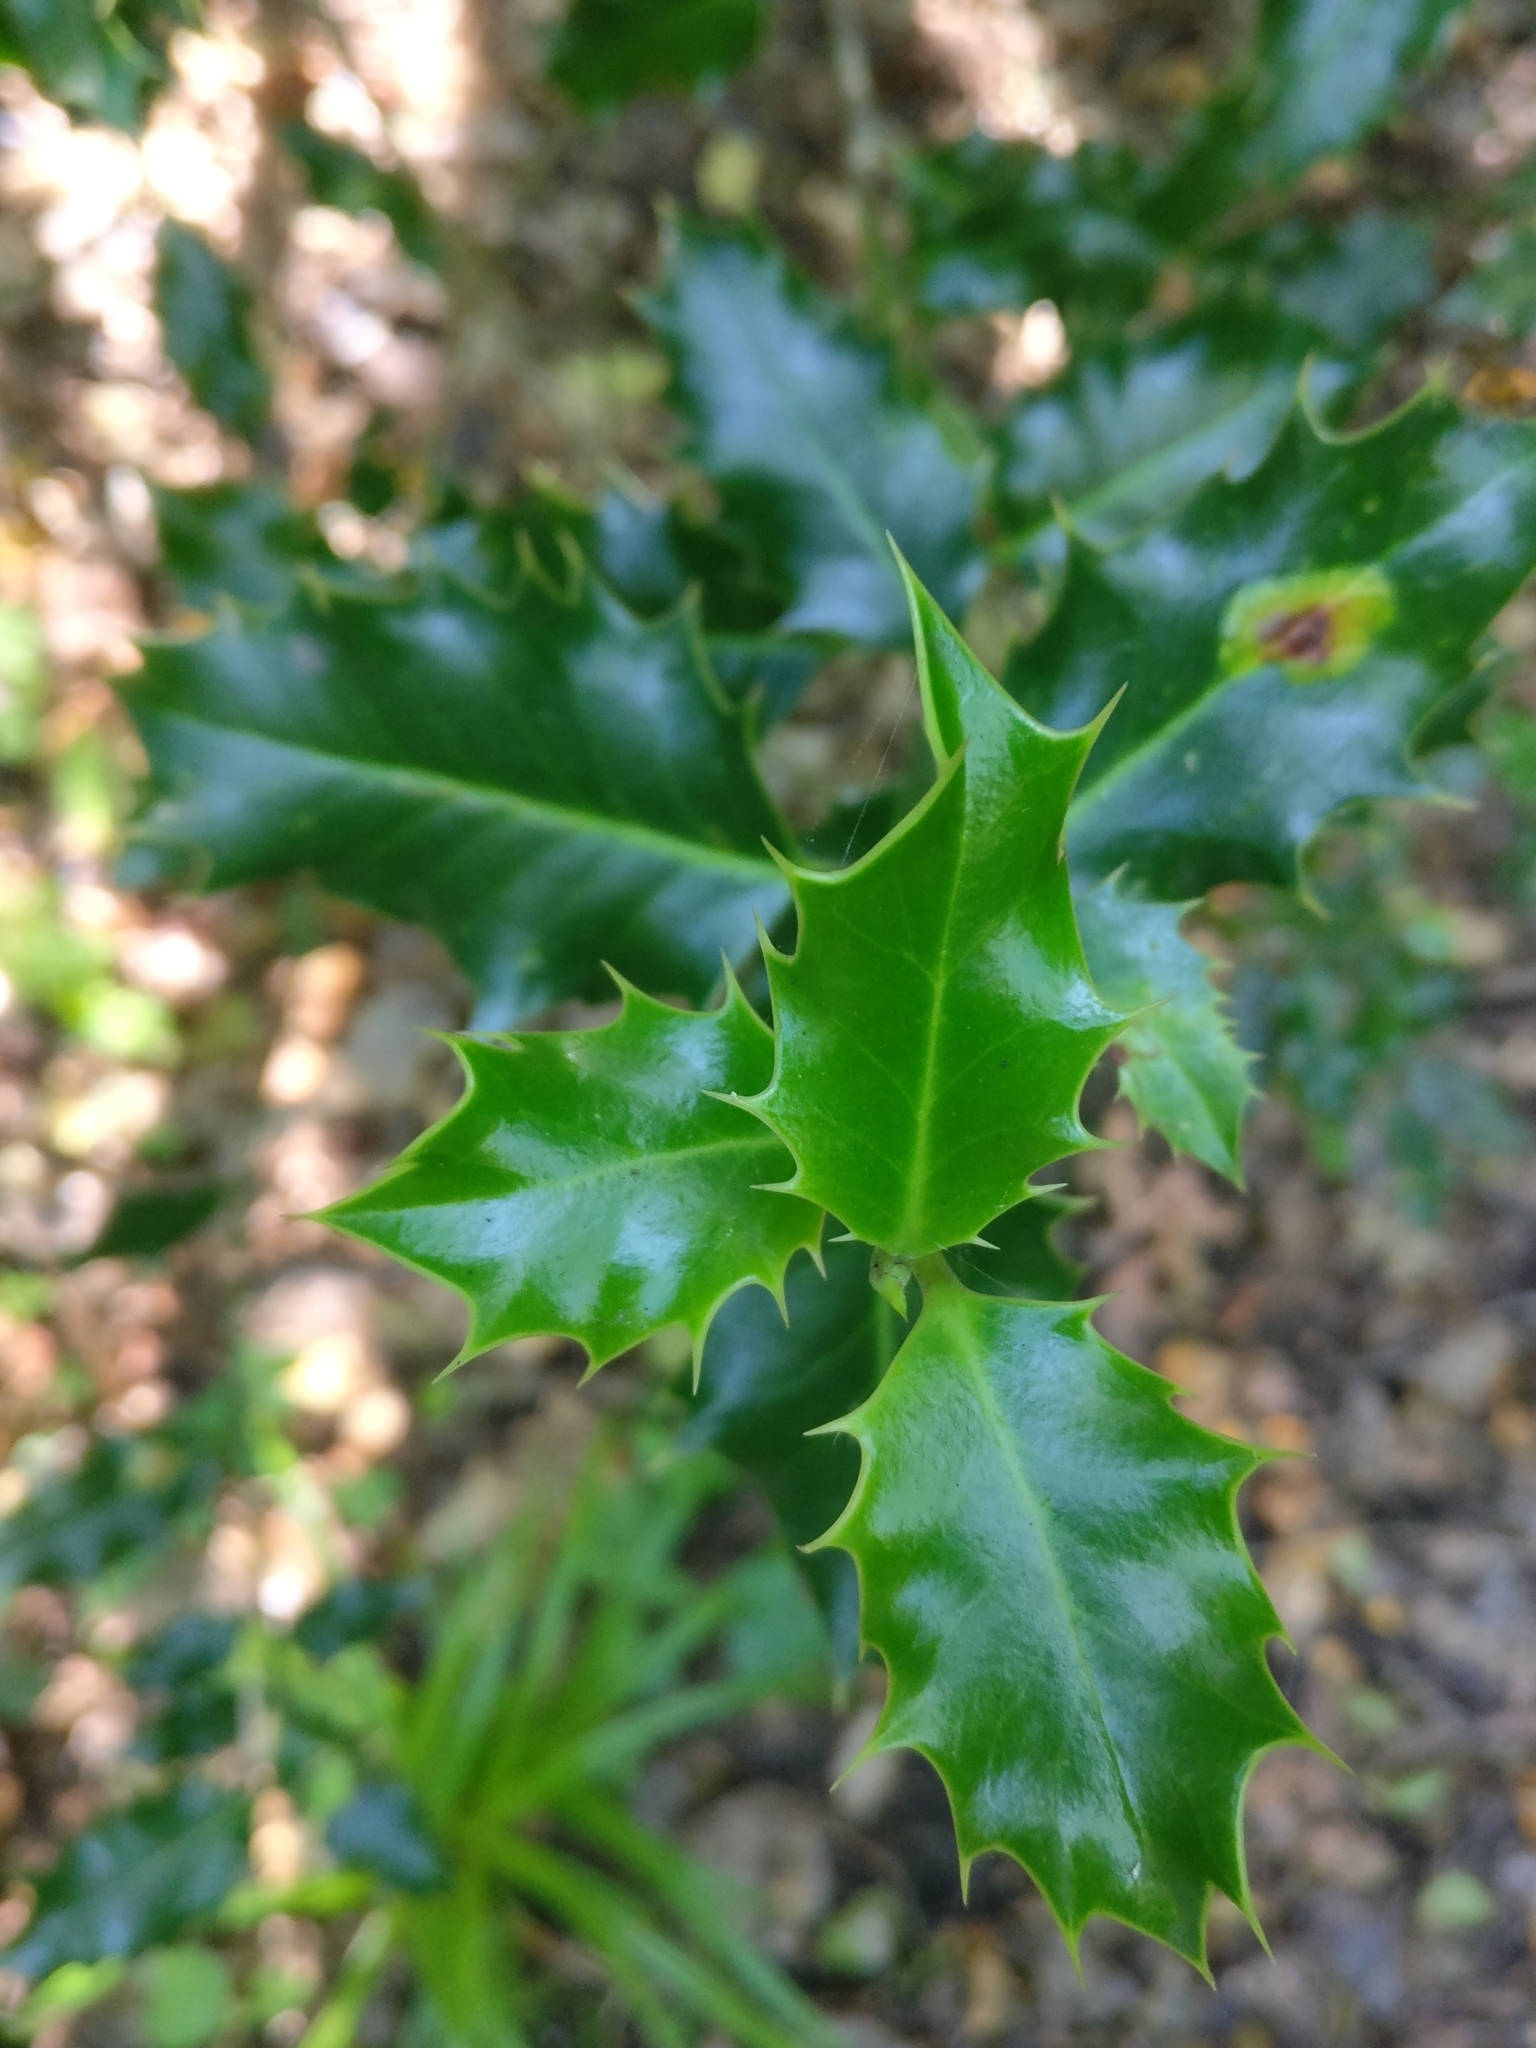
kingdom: Plantae
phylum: Tracheophyta
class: Magnoliopsida
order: Aquifoliales
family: Aquifoliaceae
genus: Ilex
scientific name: Ilex aquifolium
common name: English holly
